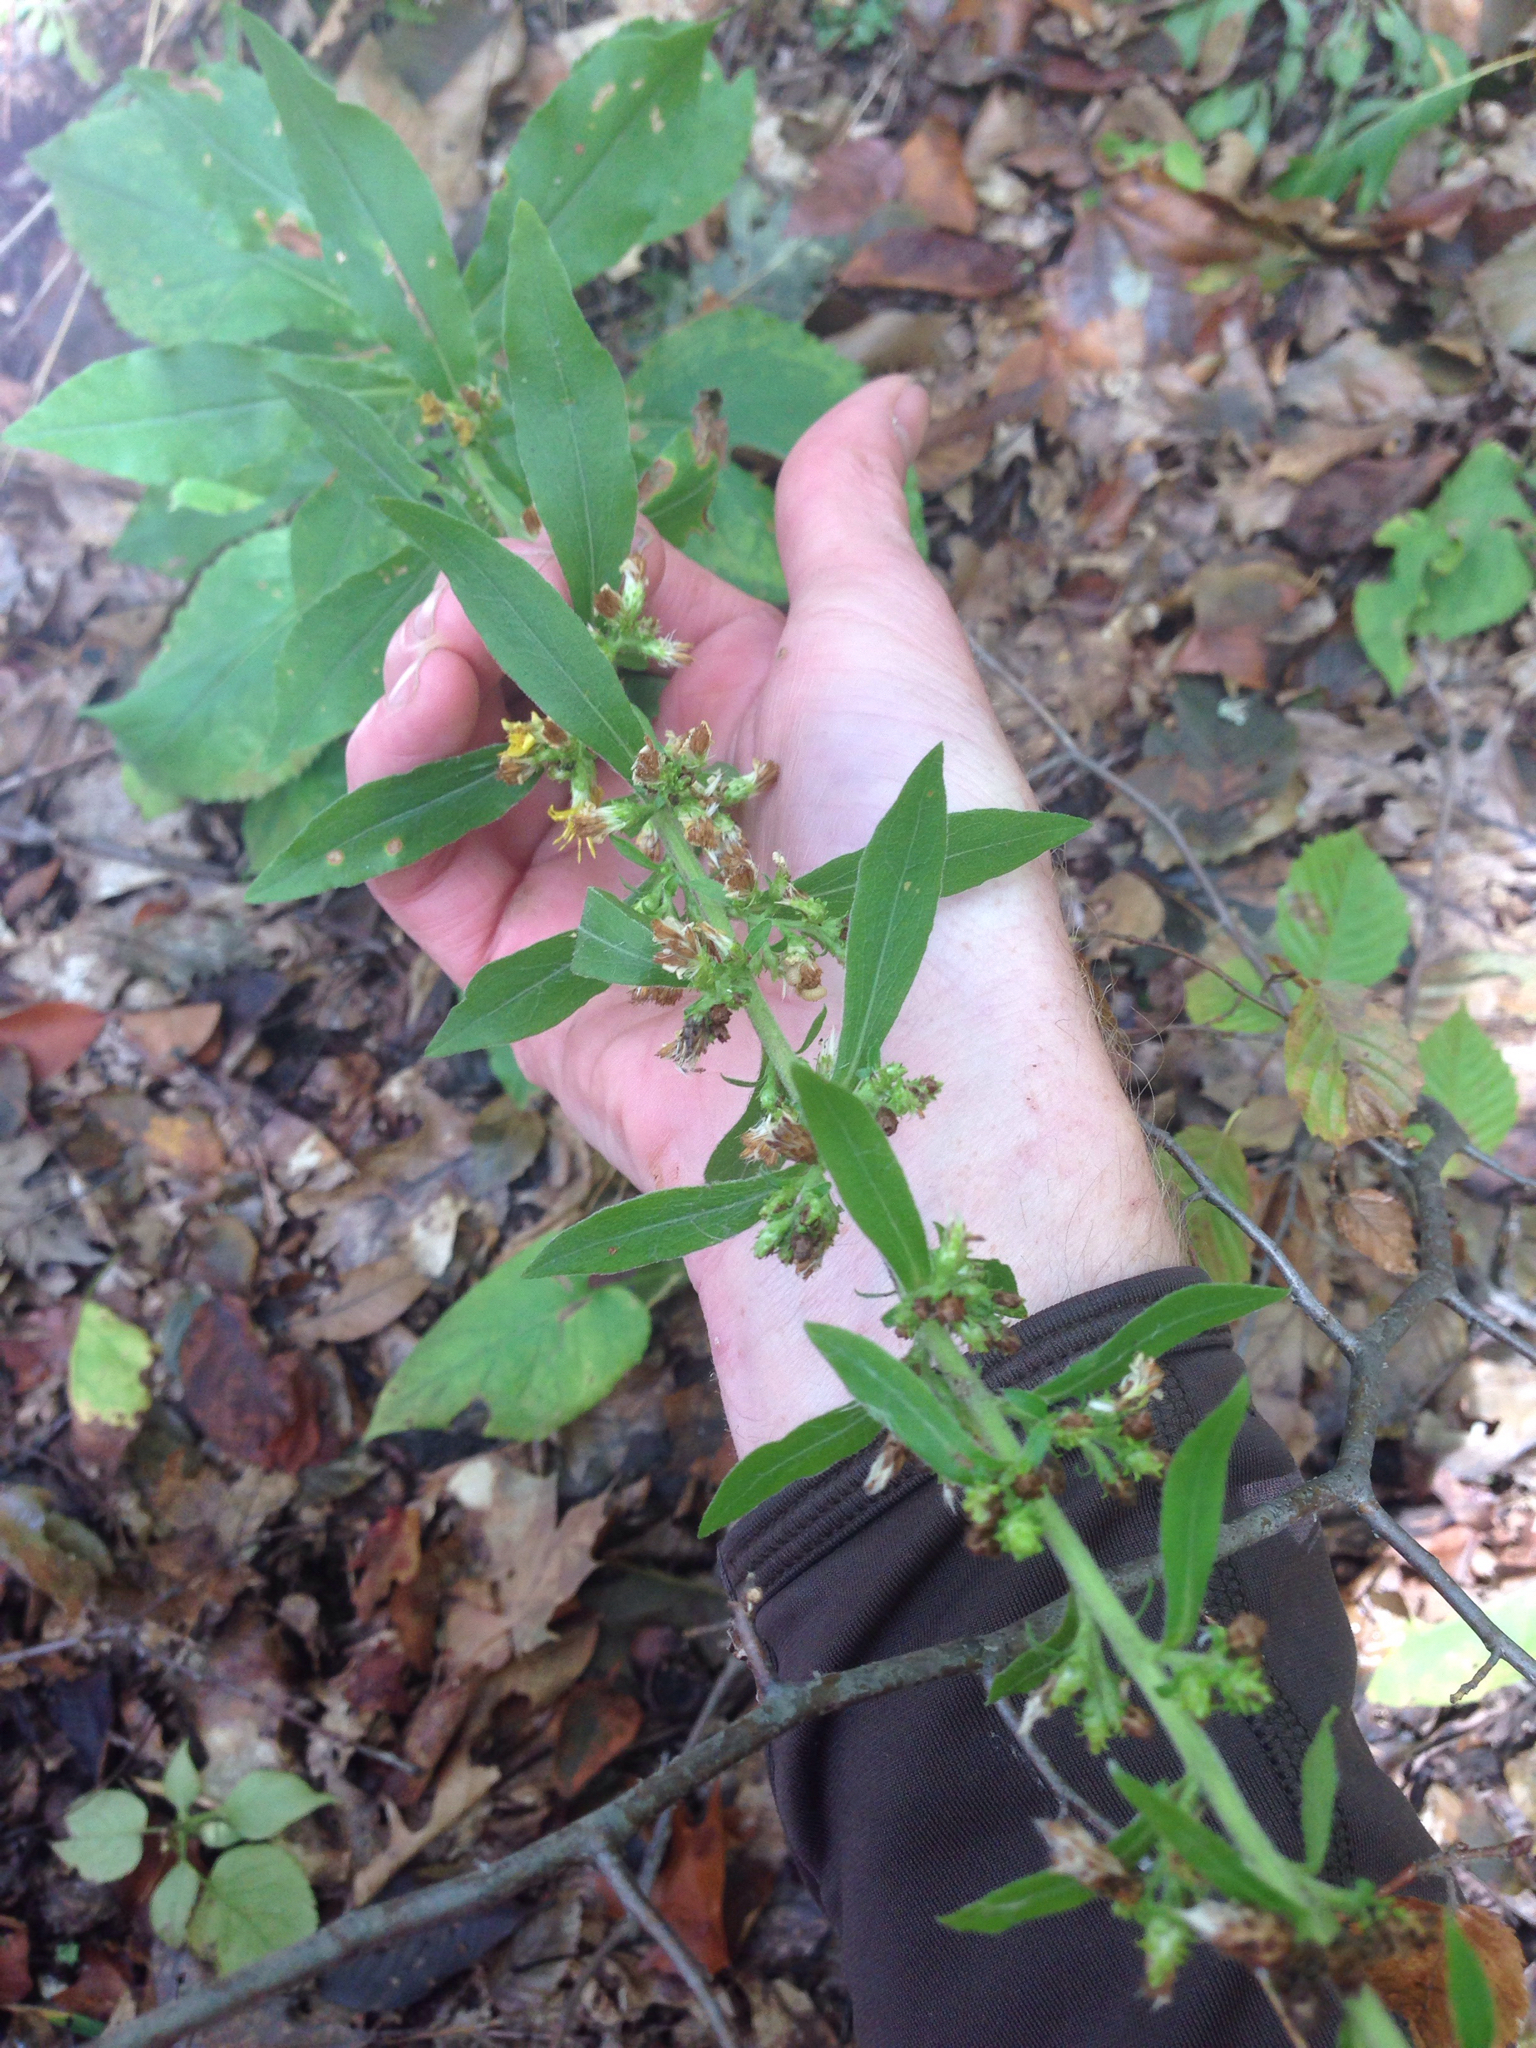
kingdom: Plantae
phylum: Tracheophyta
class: Magnoliopsida
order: Asterales
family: Asteraceae
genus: Solidago
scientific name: Solidago squarrosa
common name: Stout goldenrod
